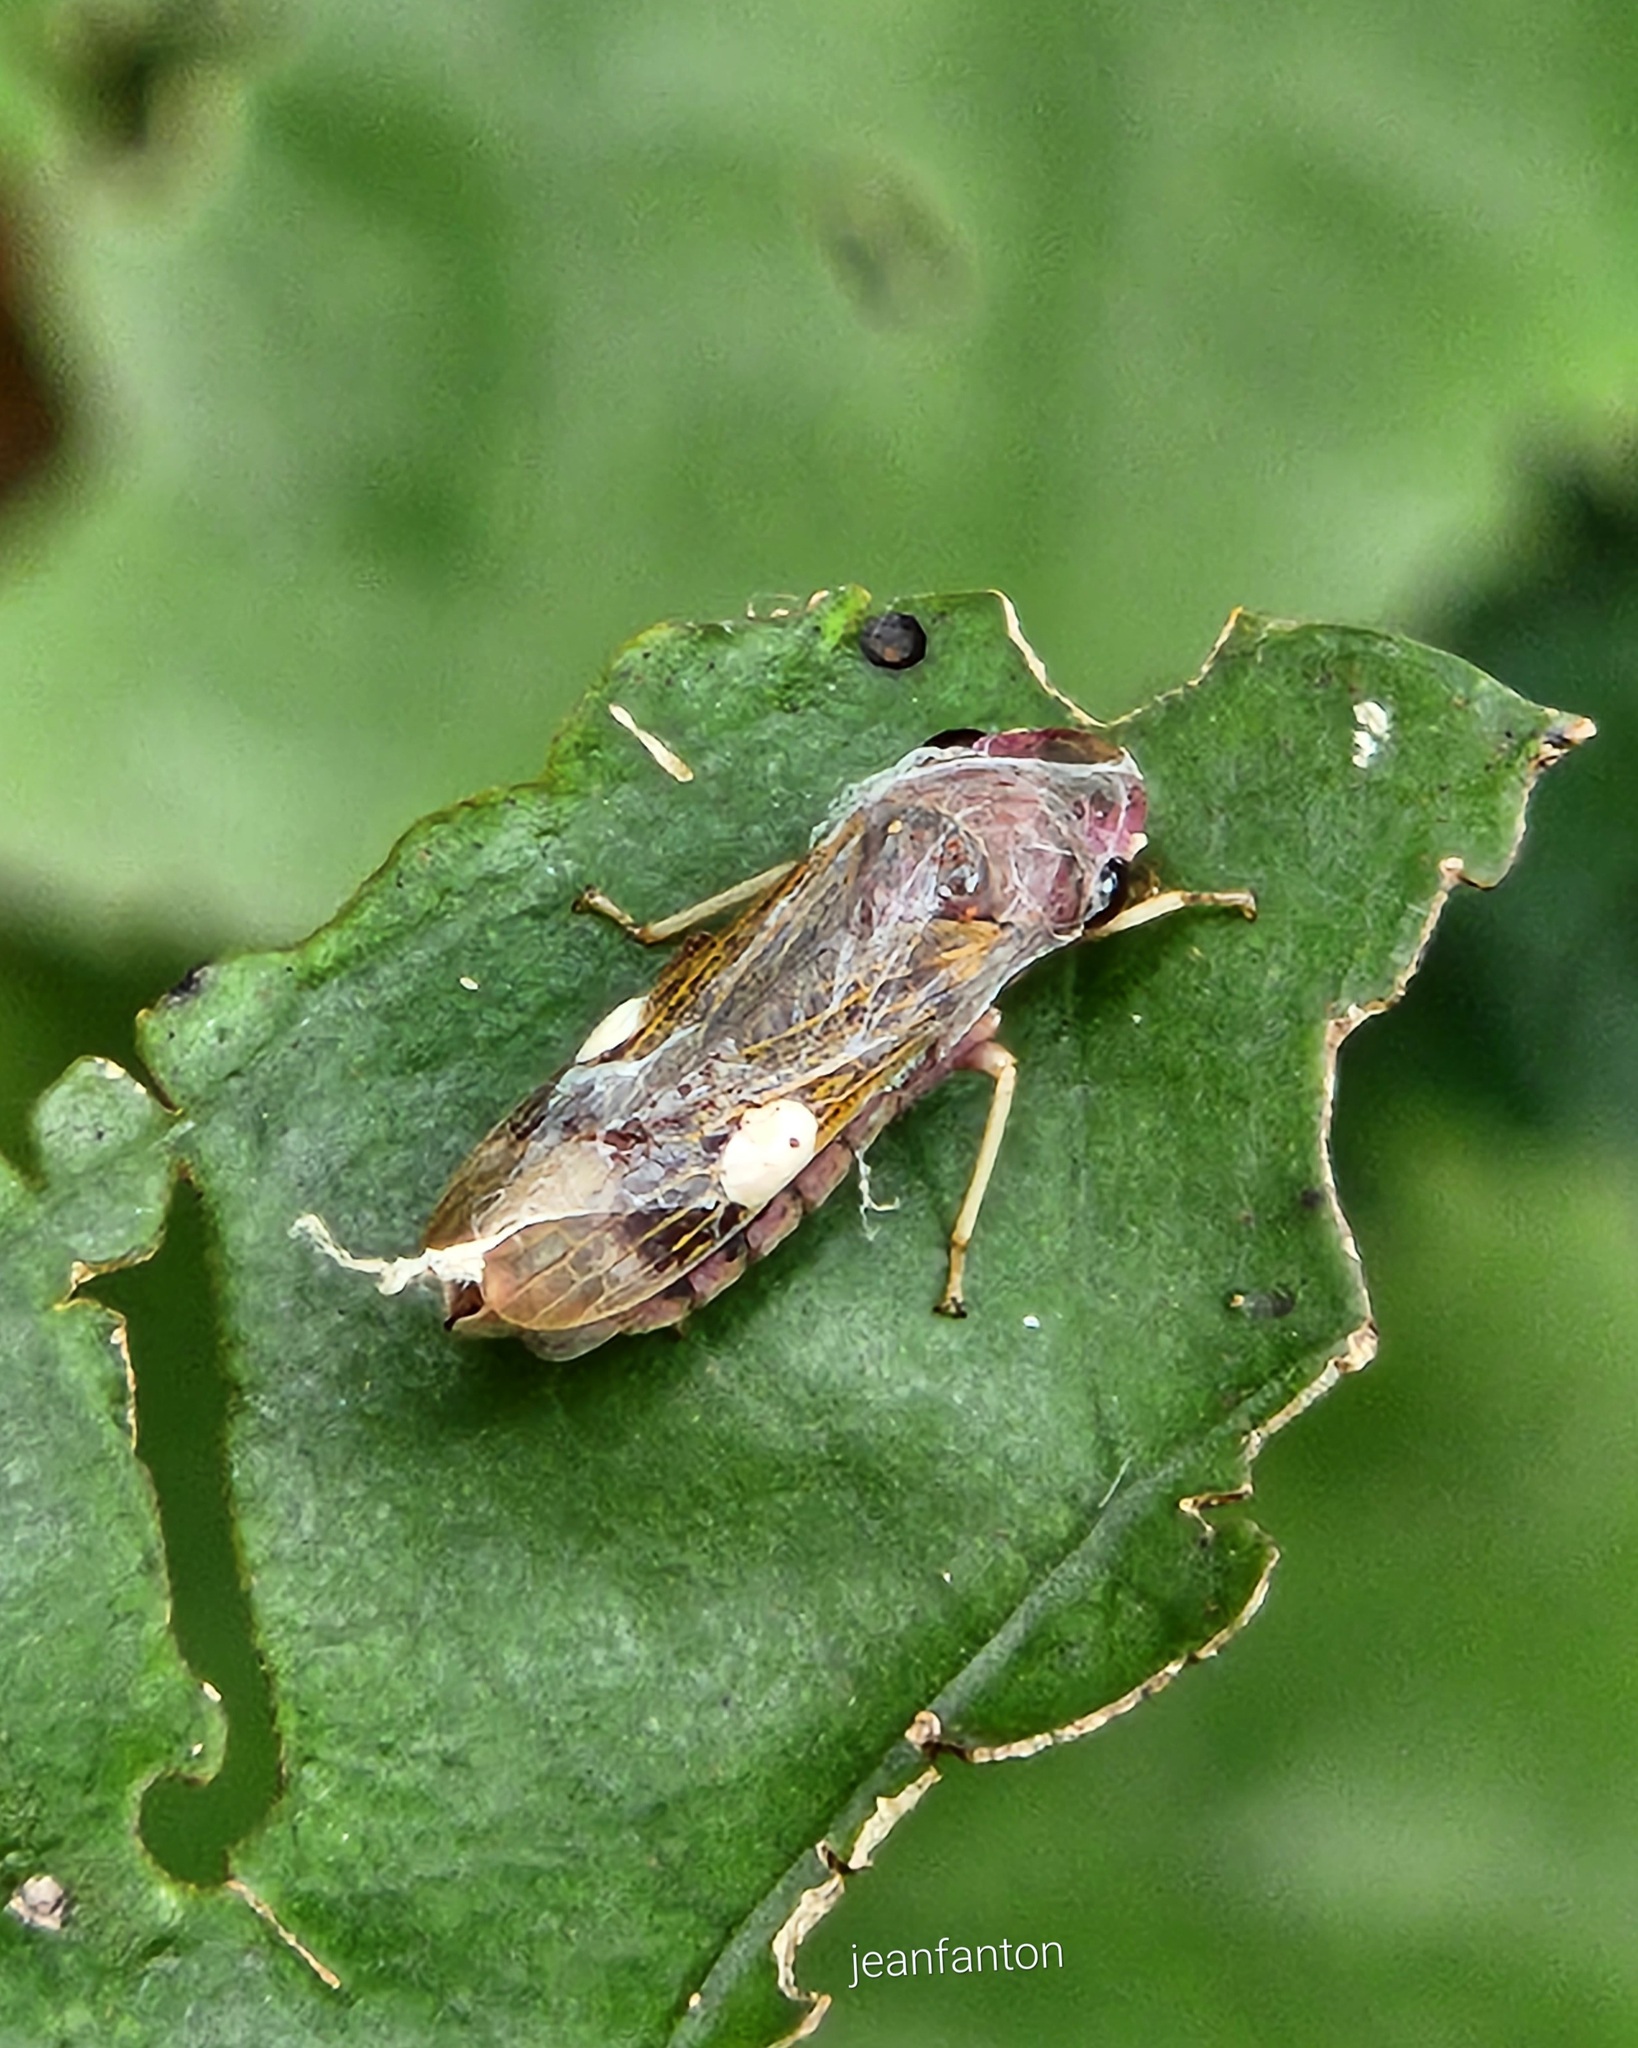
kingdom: Animalia
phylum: Arthropoda
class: Insecta
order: Hemiptera
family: Cicadellidae
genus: Oncometopia
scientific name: Oncometopia facialis
